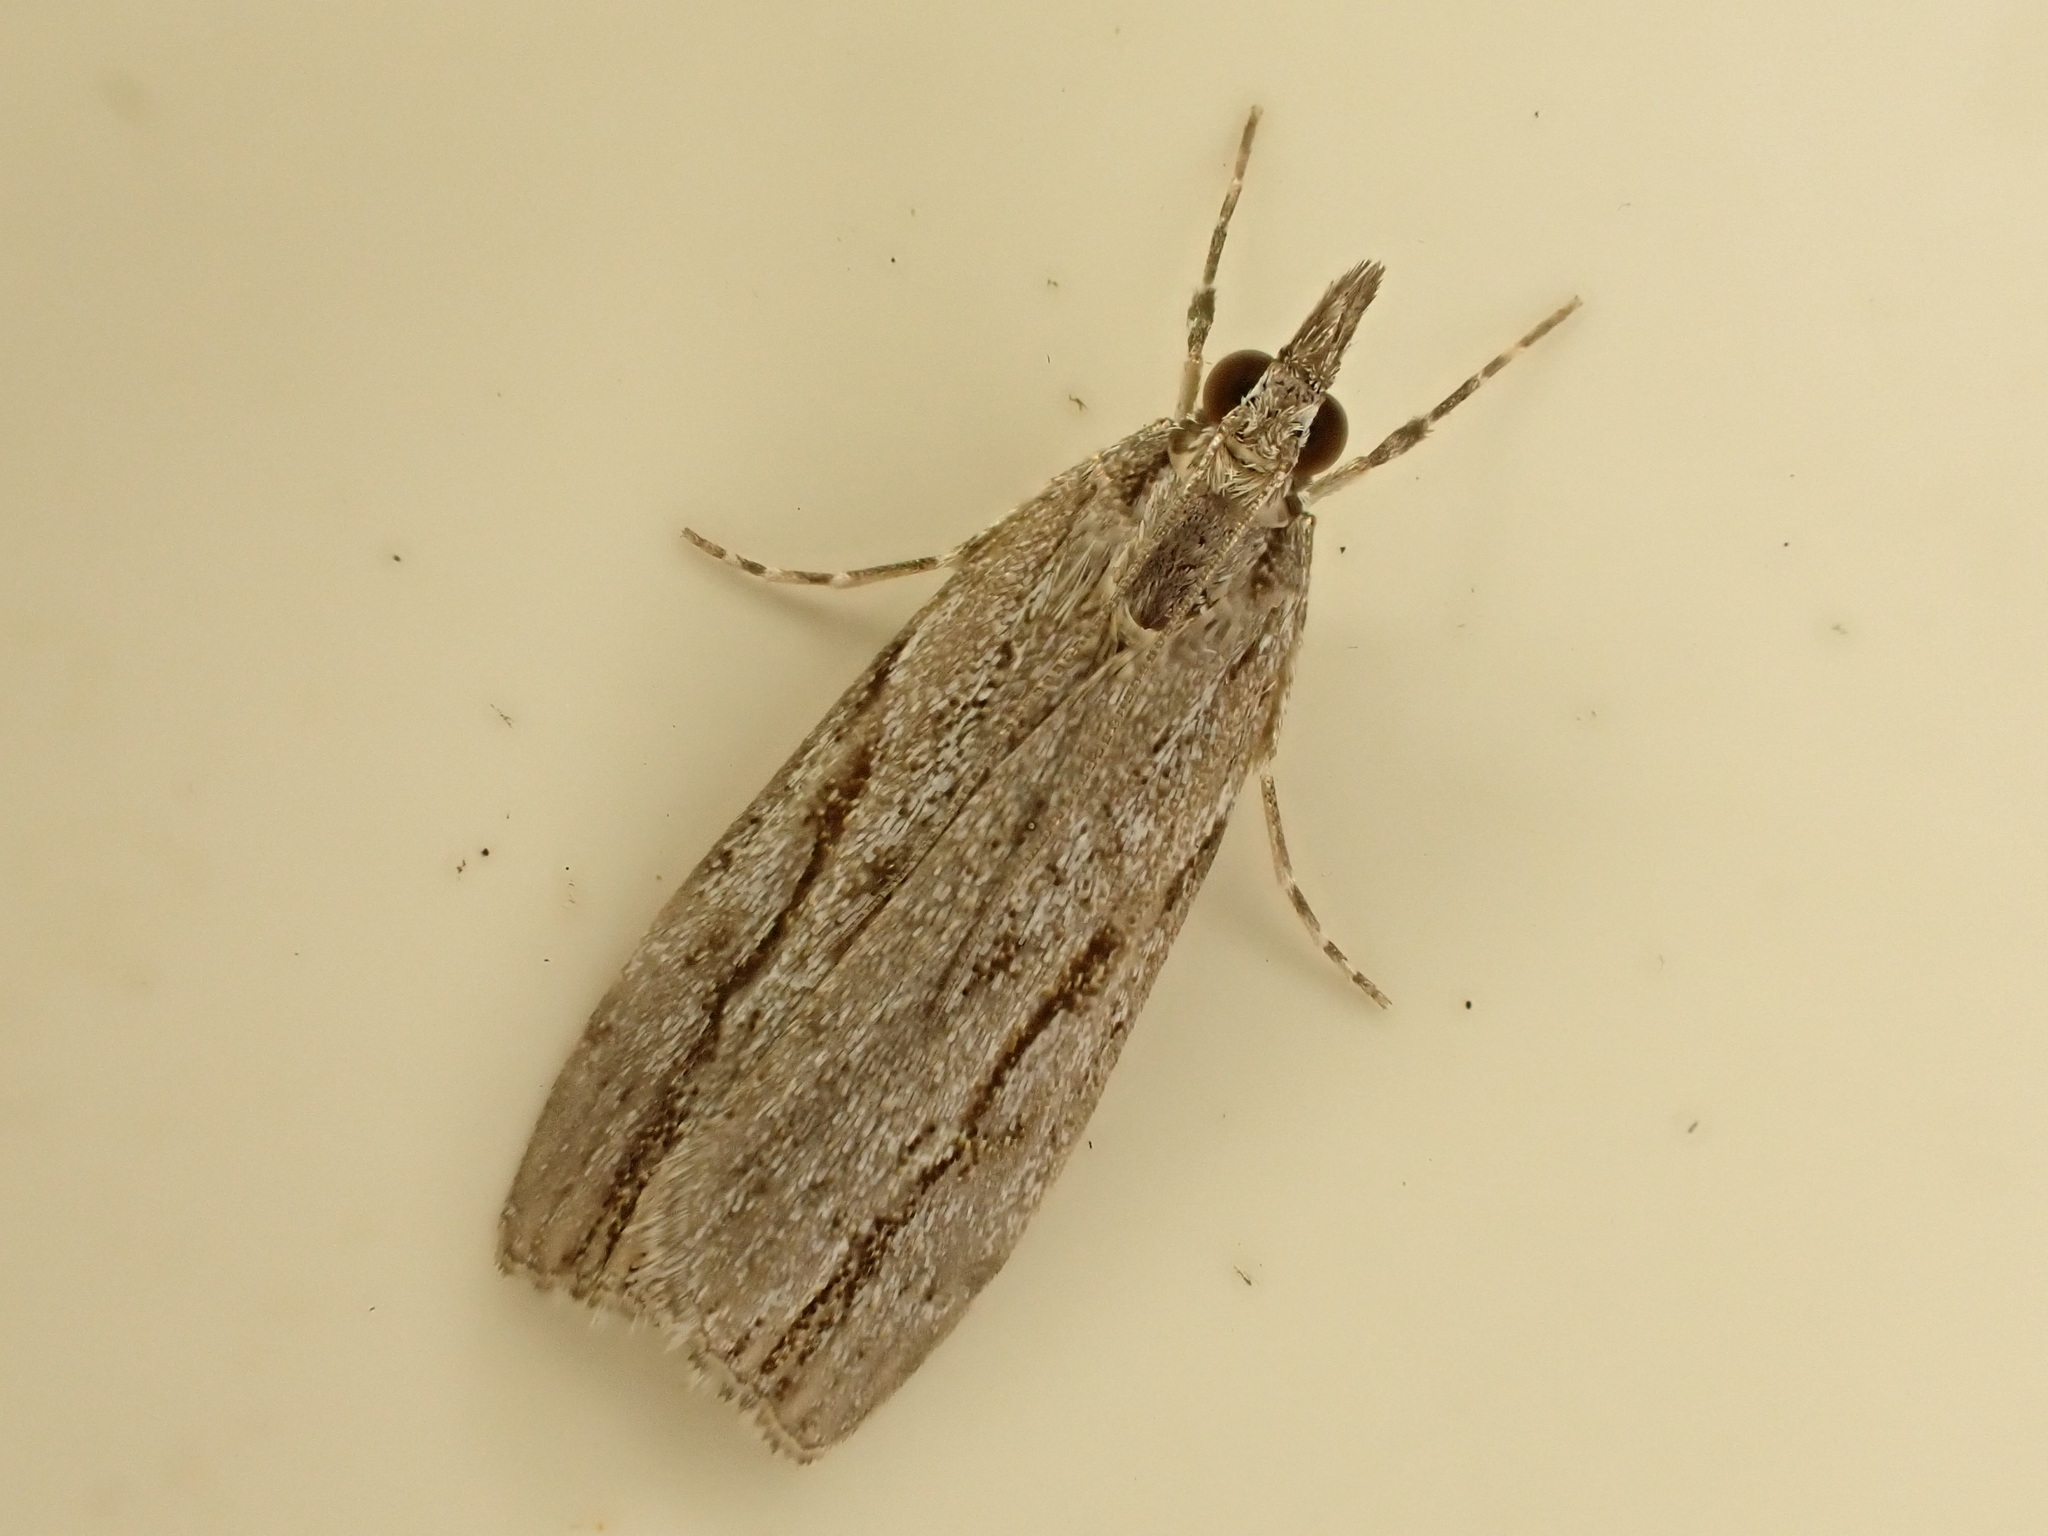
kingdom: Animalia
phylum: Arthropoda
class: Insecta
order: Lepidoptera
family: Crambidae
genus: Eudonia
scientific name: Eudonia bisinualis
